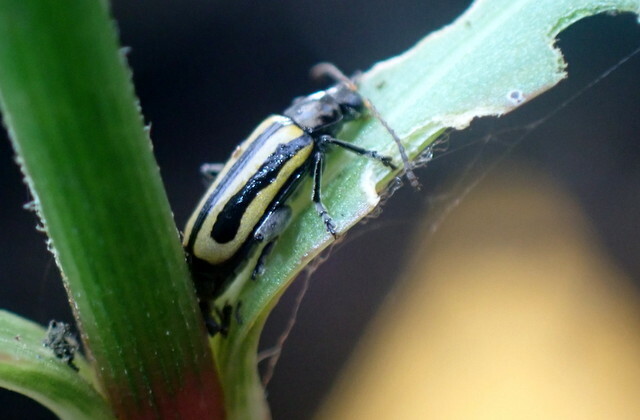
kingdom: Animalia
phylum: Arthropoda
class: Insecta
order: Coleoptera
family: Chrysomelidae
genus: Agasicles
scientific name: Agasicles hygrophila
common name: Alligatorweed flea beetle
